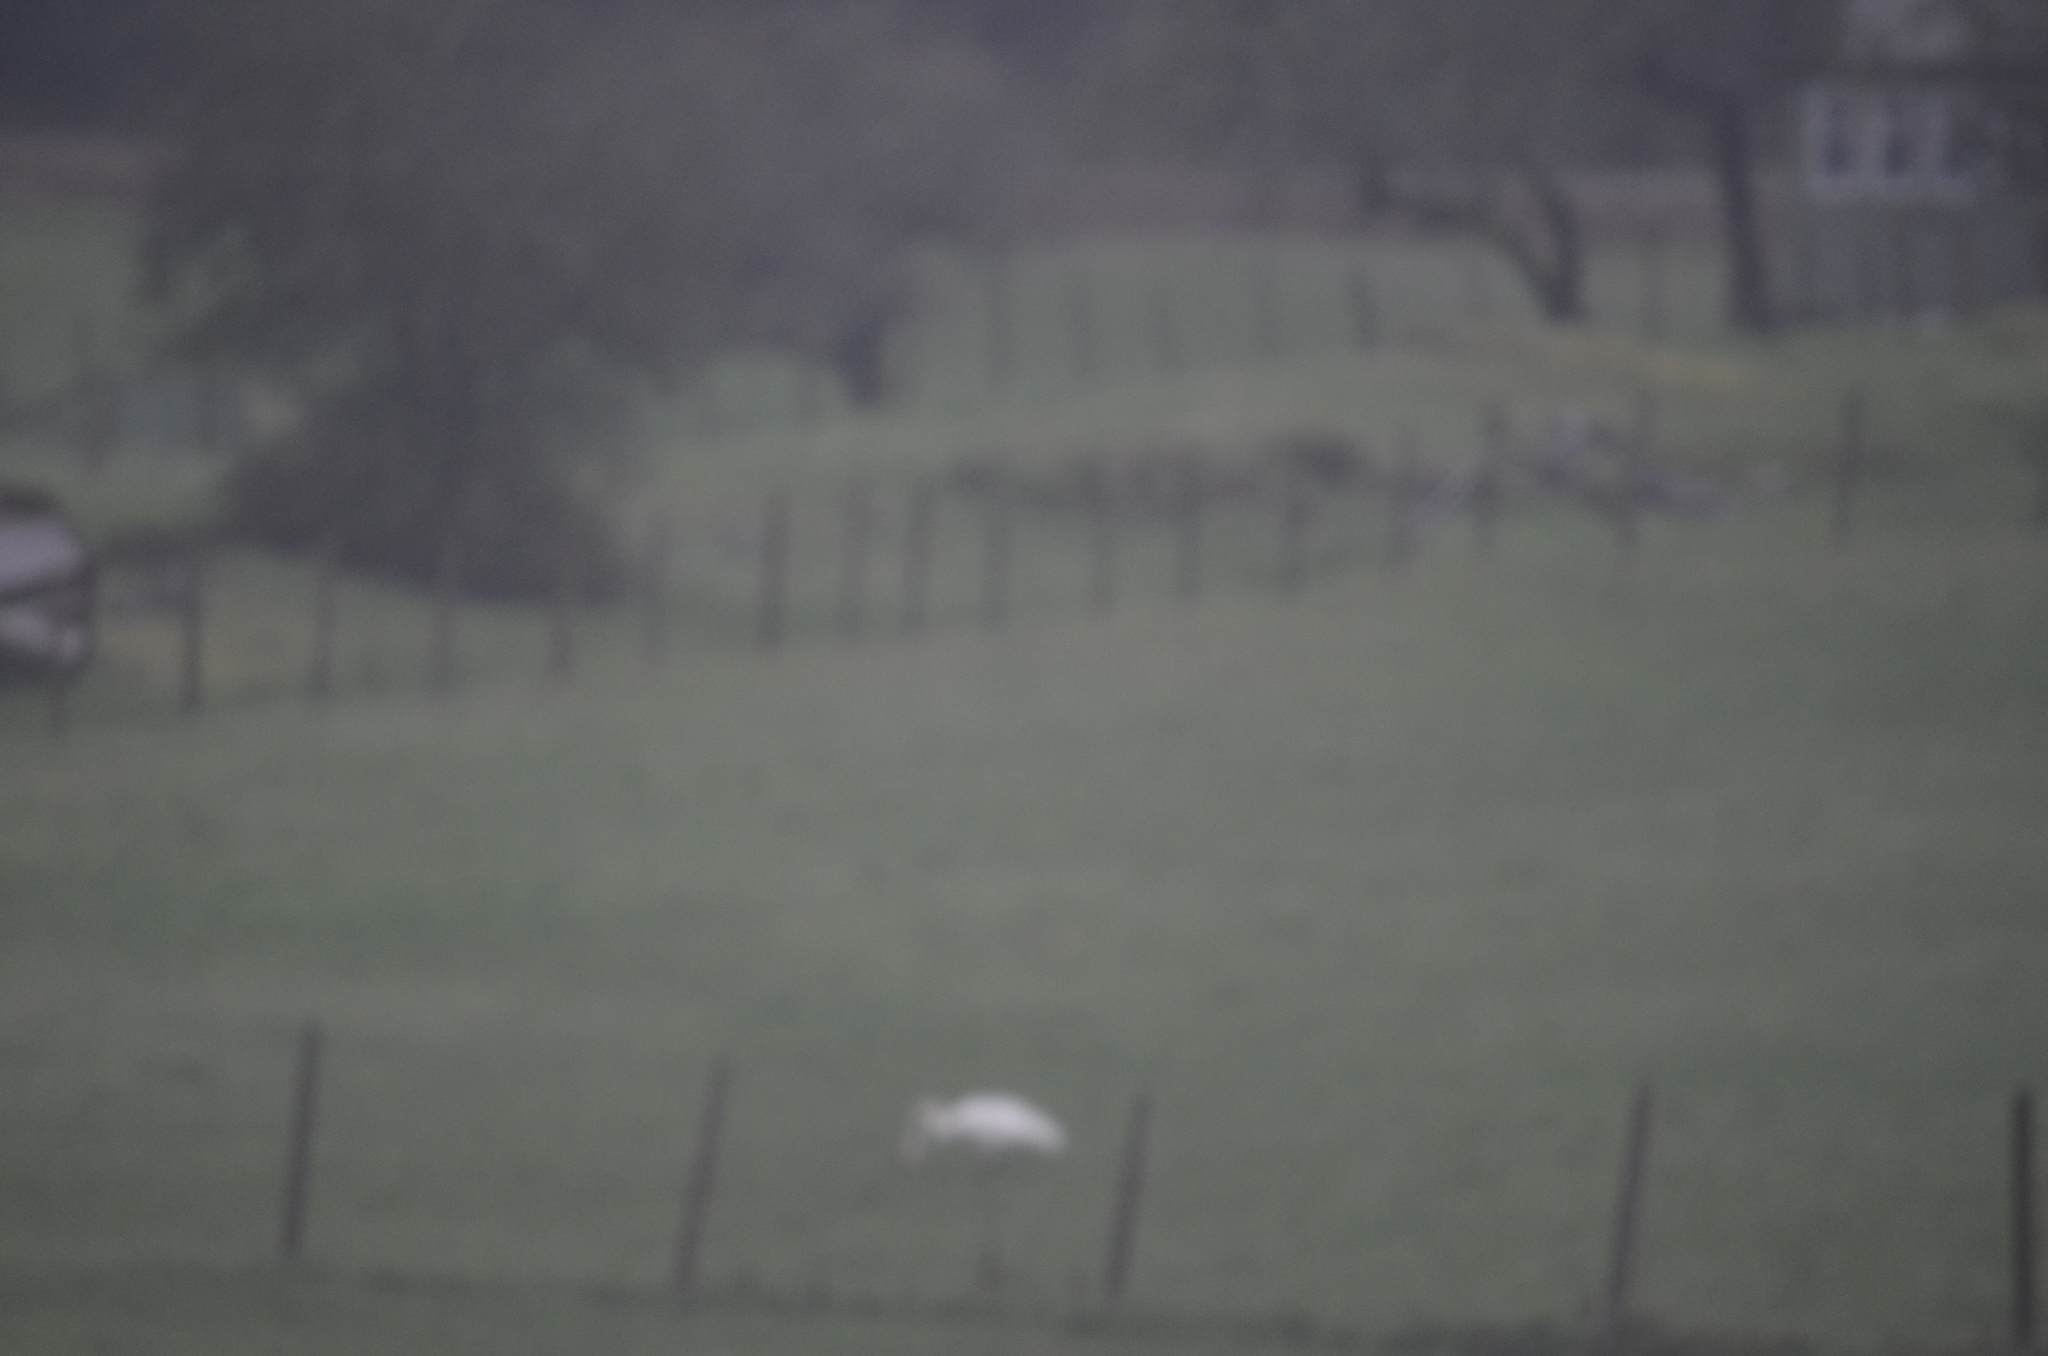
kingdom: Animalia
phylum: Chordata
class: Aves
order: Anseriformes
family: Anatidae
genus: Cygnus
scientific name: Cygnus buccinator
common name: Trumpeter swan
